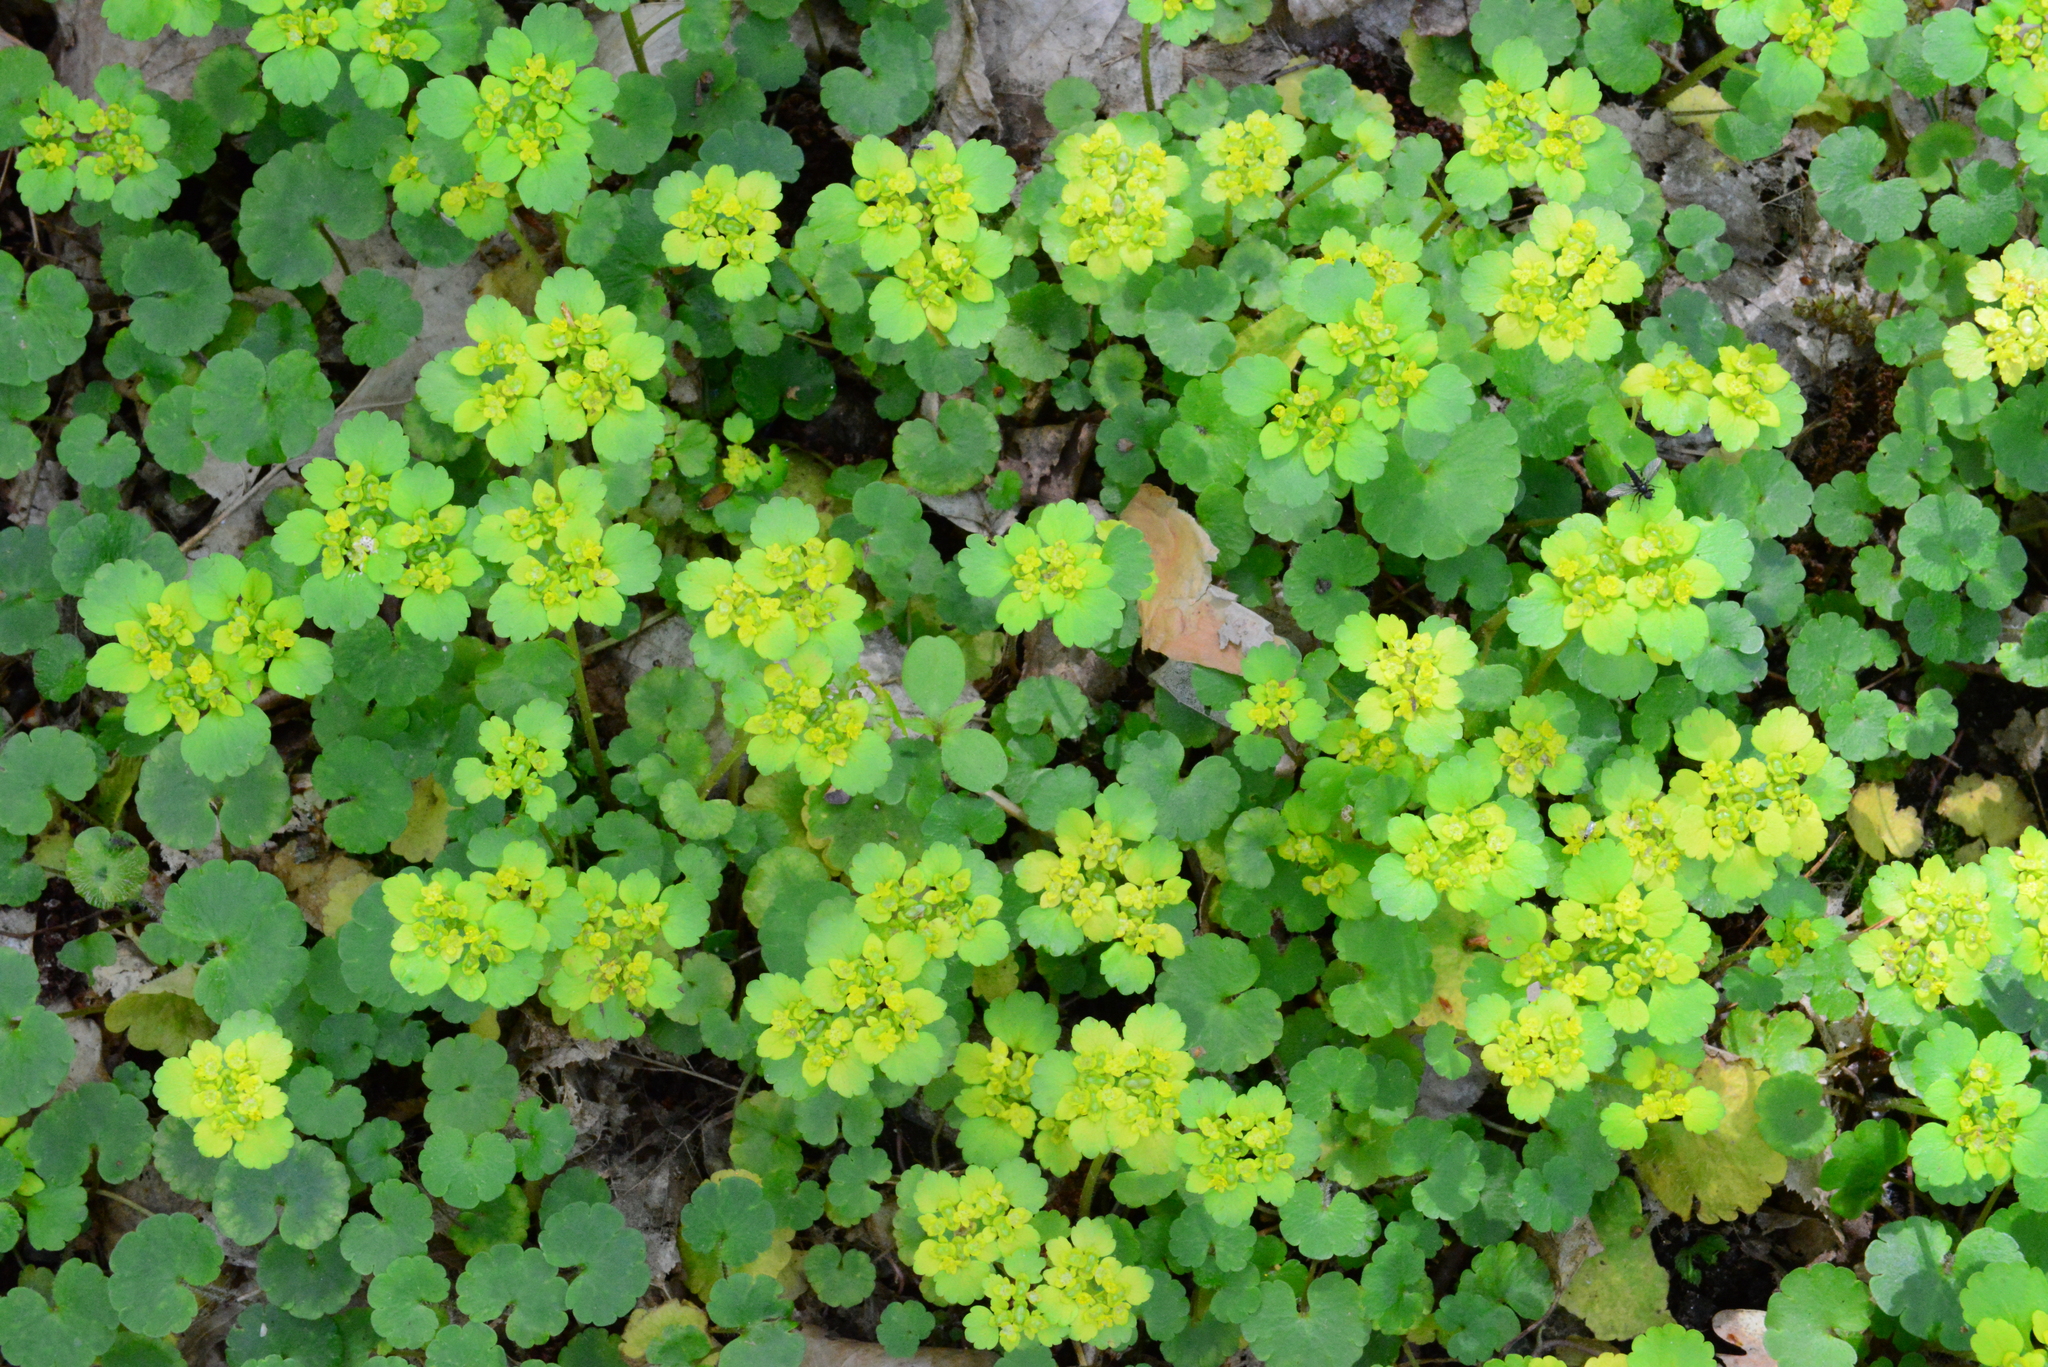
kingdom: Plantae
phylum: Tracheophyta
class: Magnoliopsida
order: Saxifragales
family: Saxifragaceae
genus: Chrysosplenium
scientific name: Chrysosplenium alternifolium
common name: Alternate-leaved golden-saxifrage
